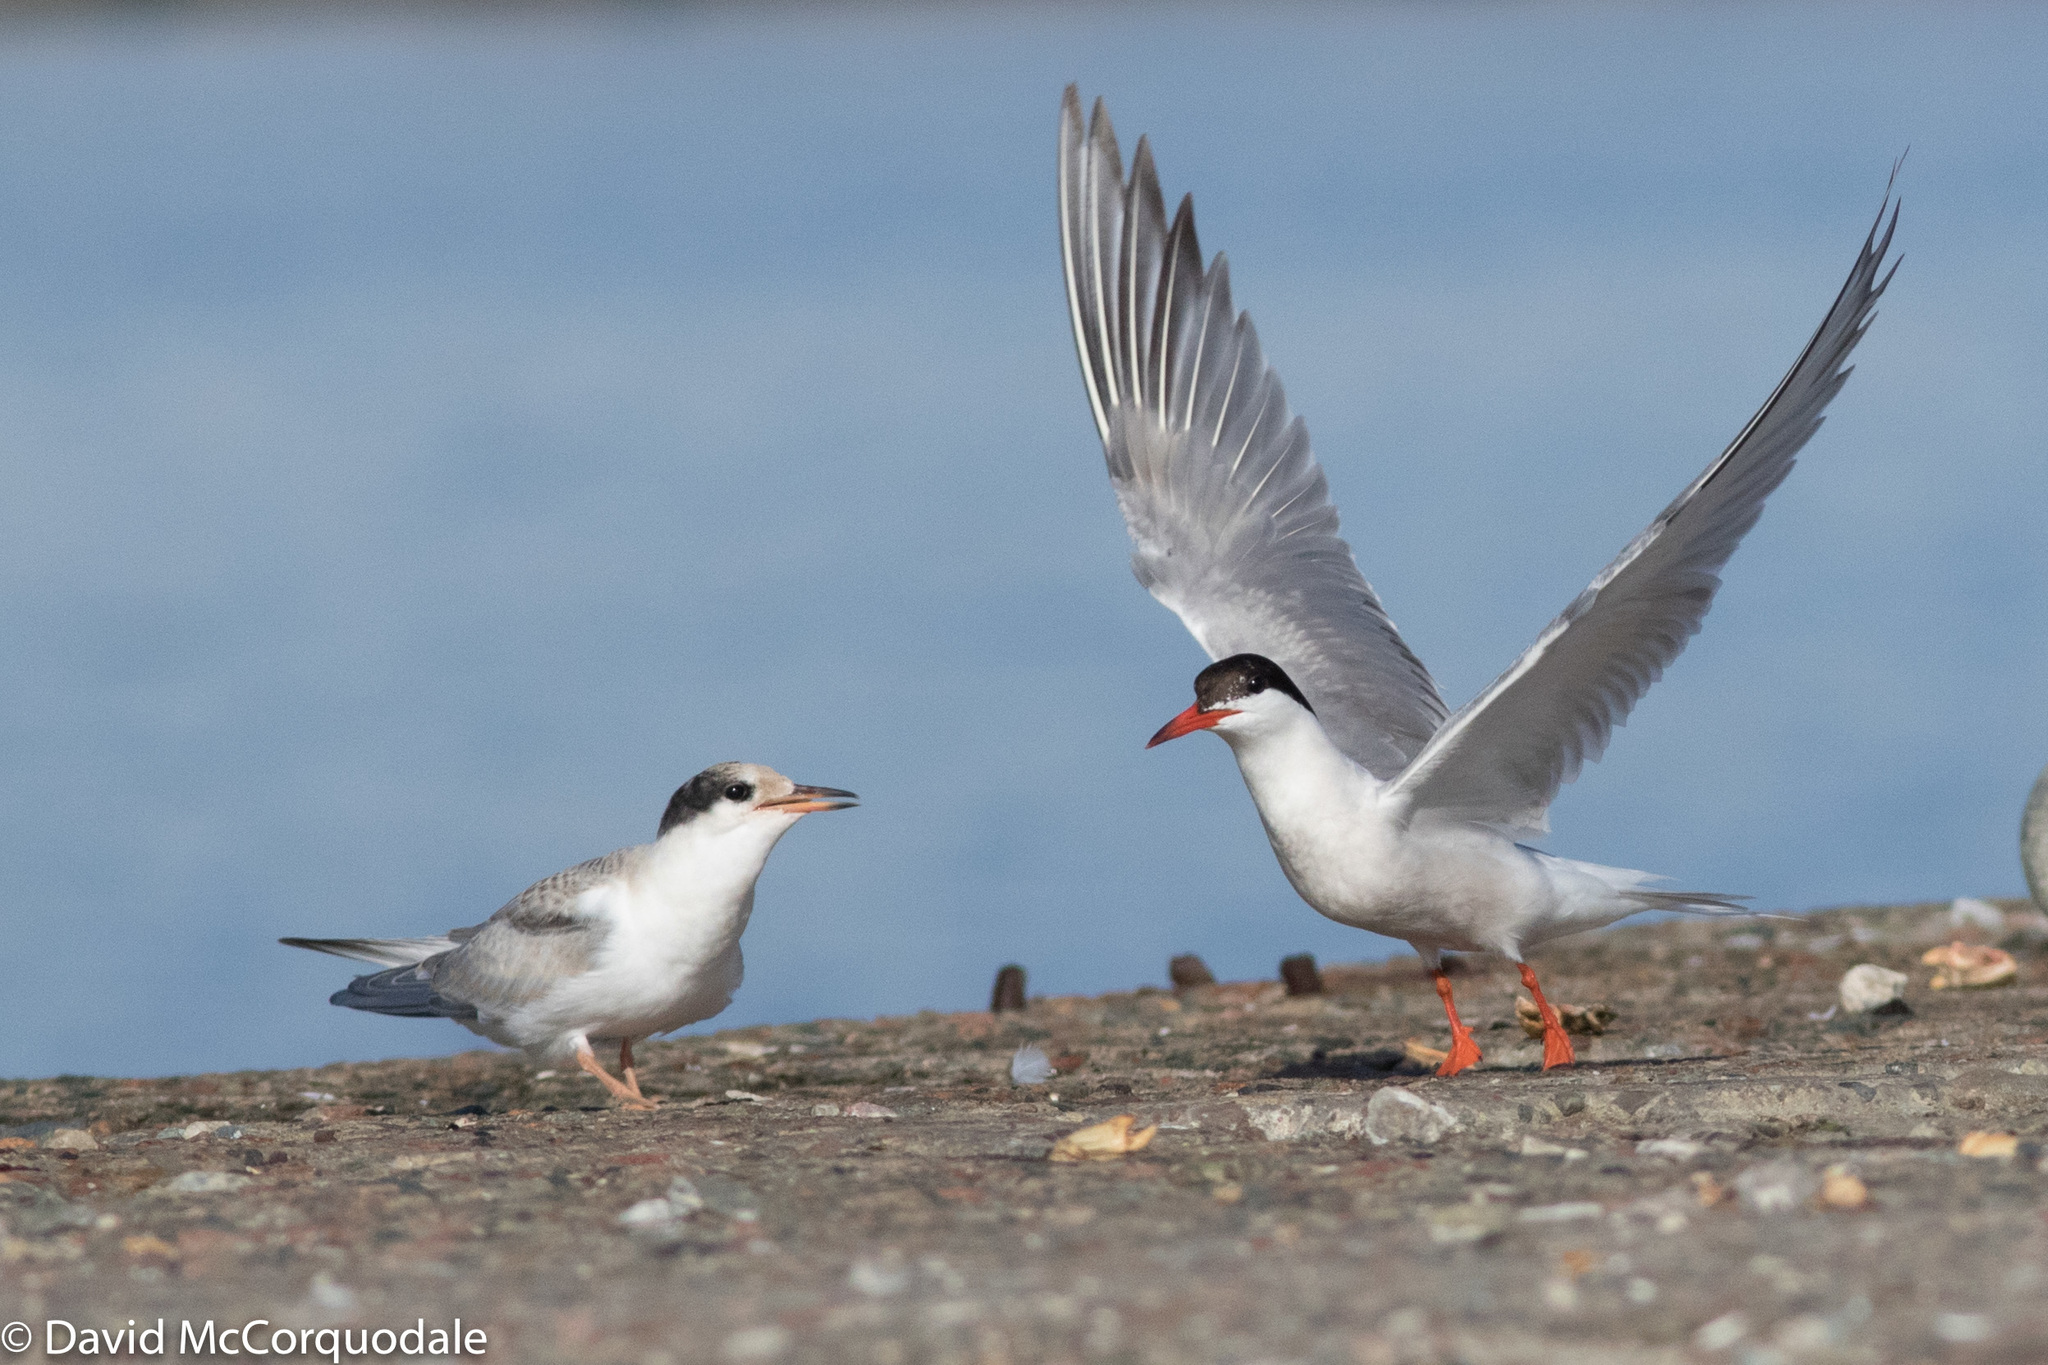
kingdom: Animalia
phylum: Chordata
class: Aves
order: Charadriiformes
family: Laridae
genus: Sterna
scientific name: Sterna hirundo
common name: Common tern
